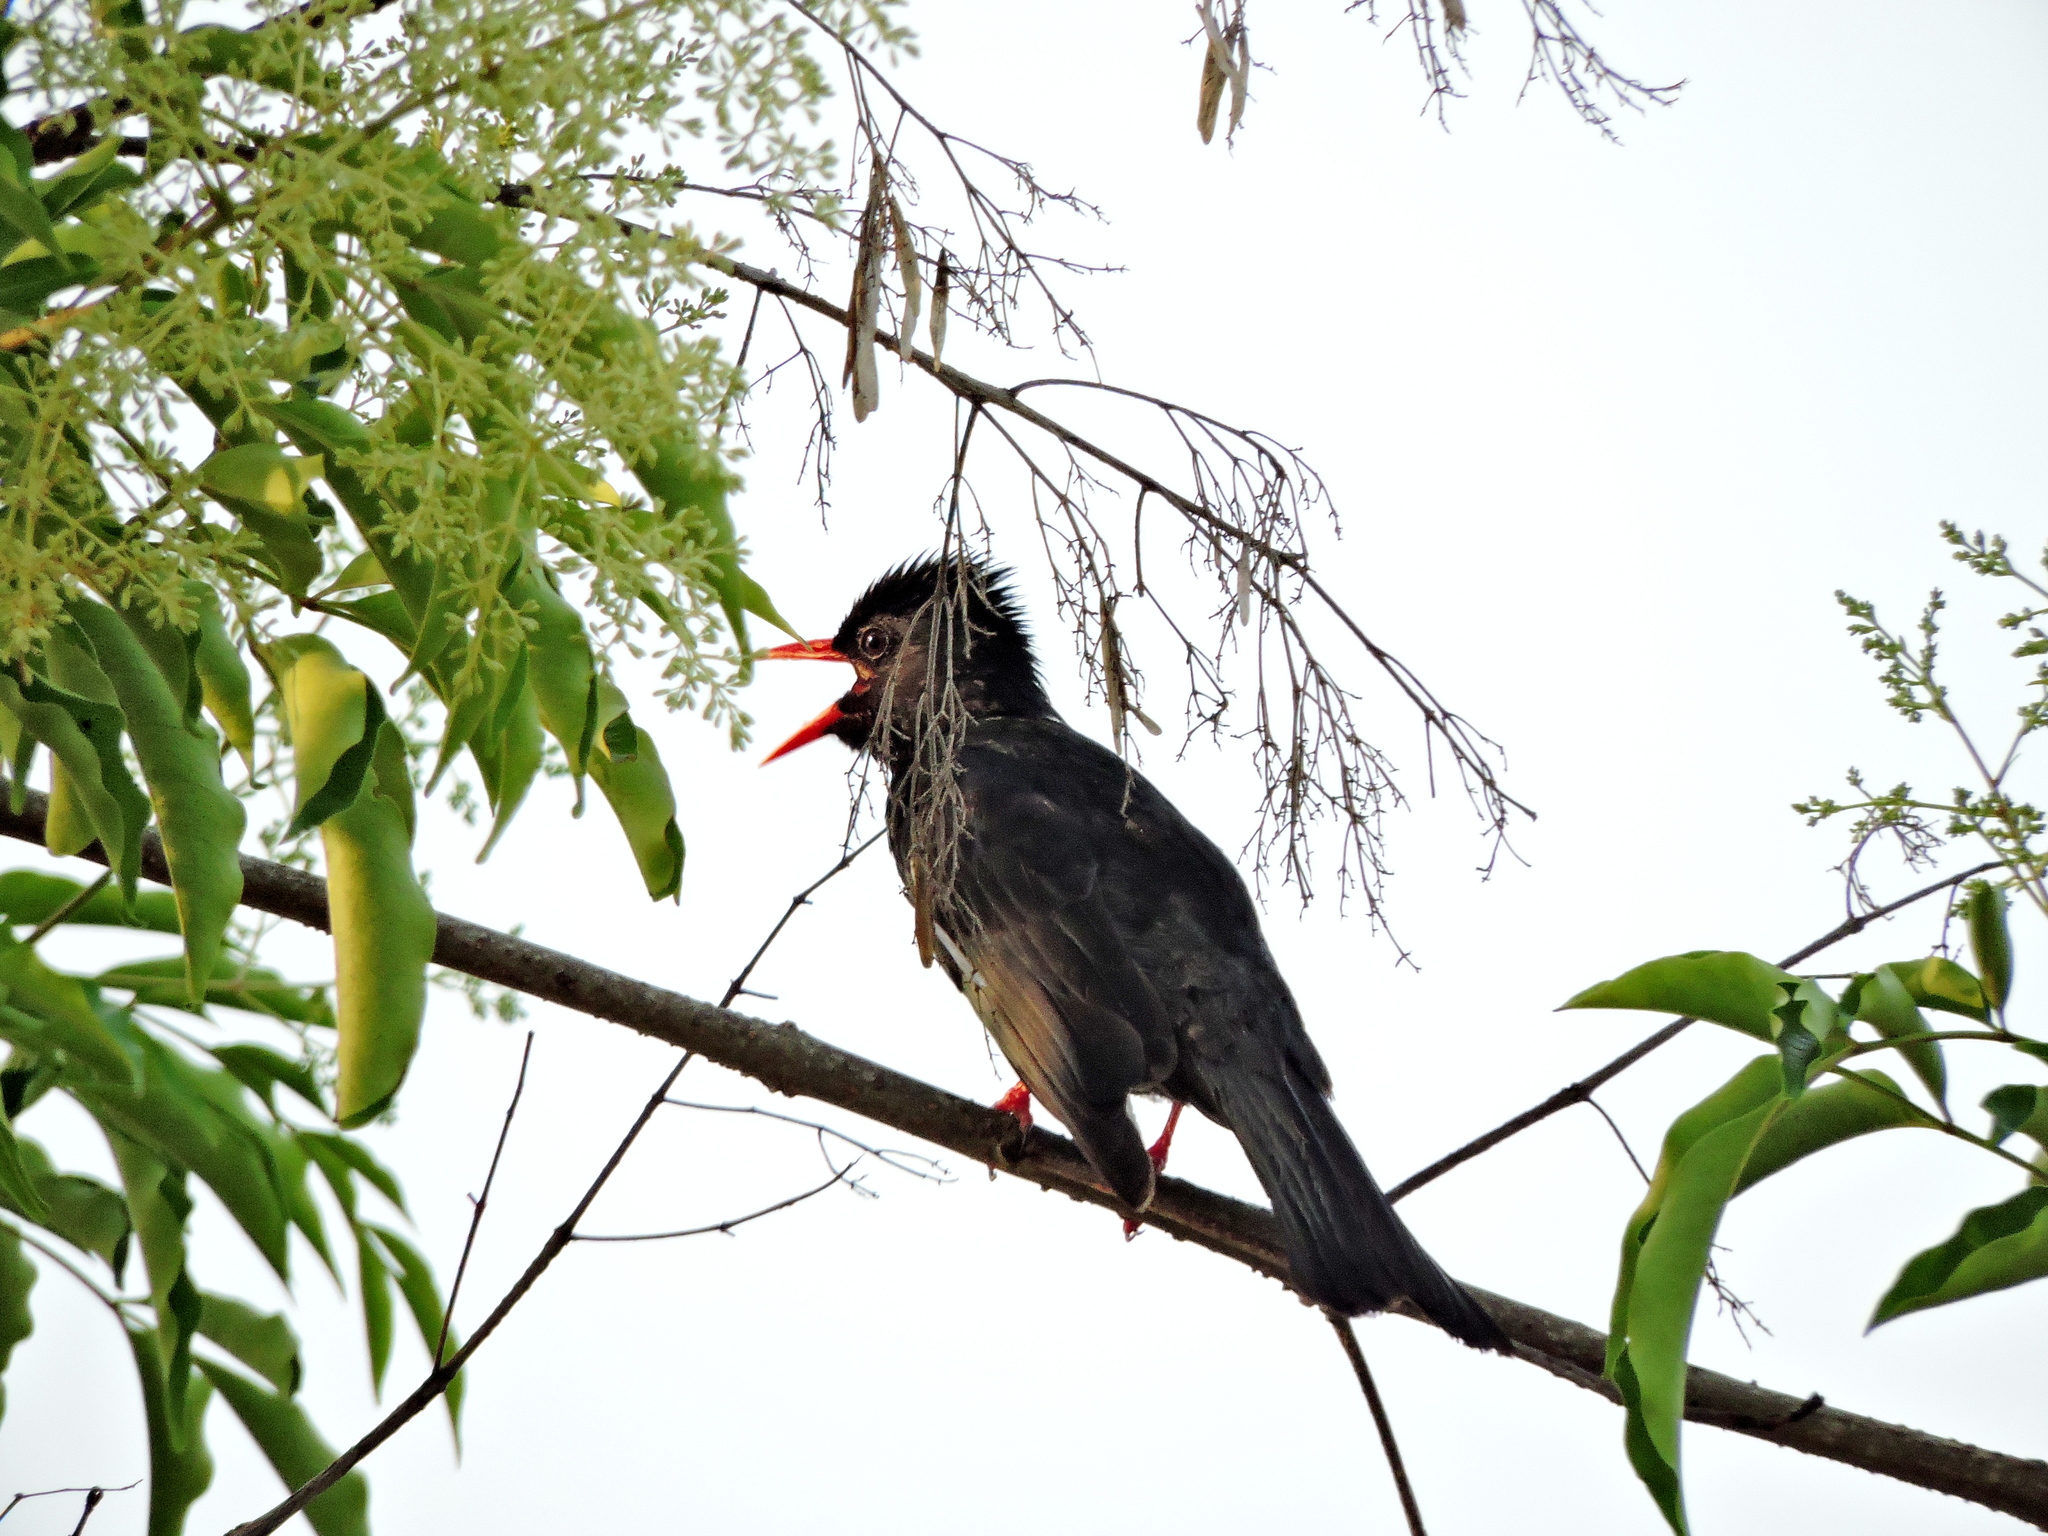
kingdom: Animalia
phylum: Chordata
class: Aves
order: Passeriformes
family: Pycnonotidae
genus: Hypsipetes
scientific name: Hypsipetes leucocephalus
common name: Black bulbul
